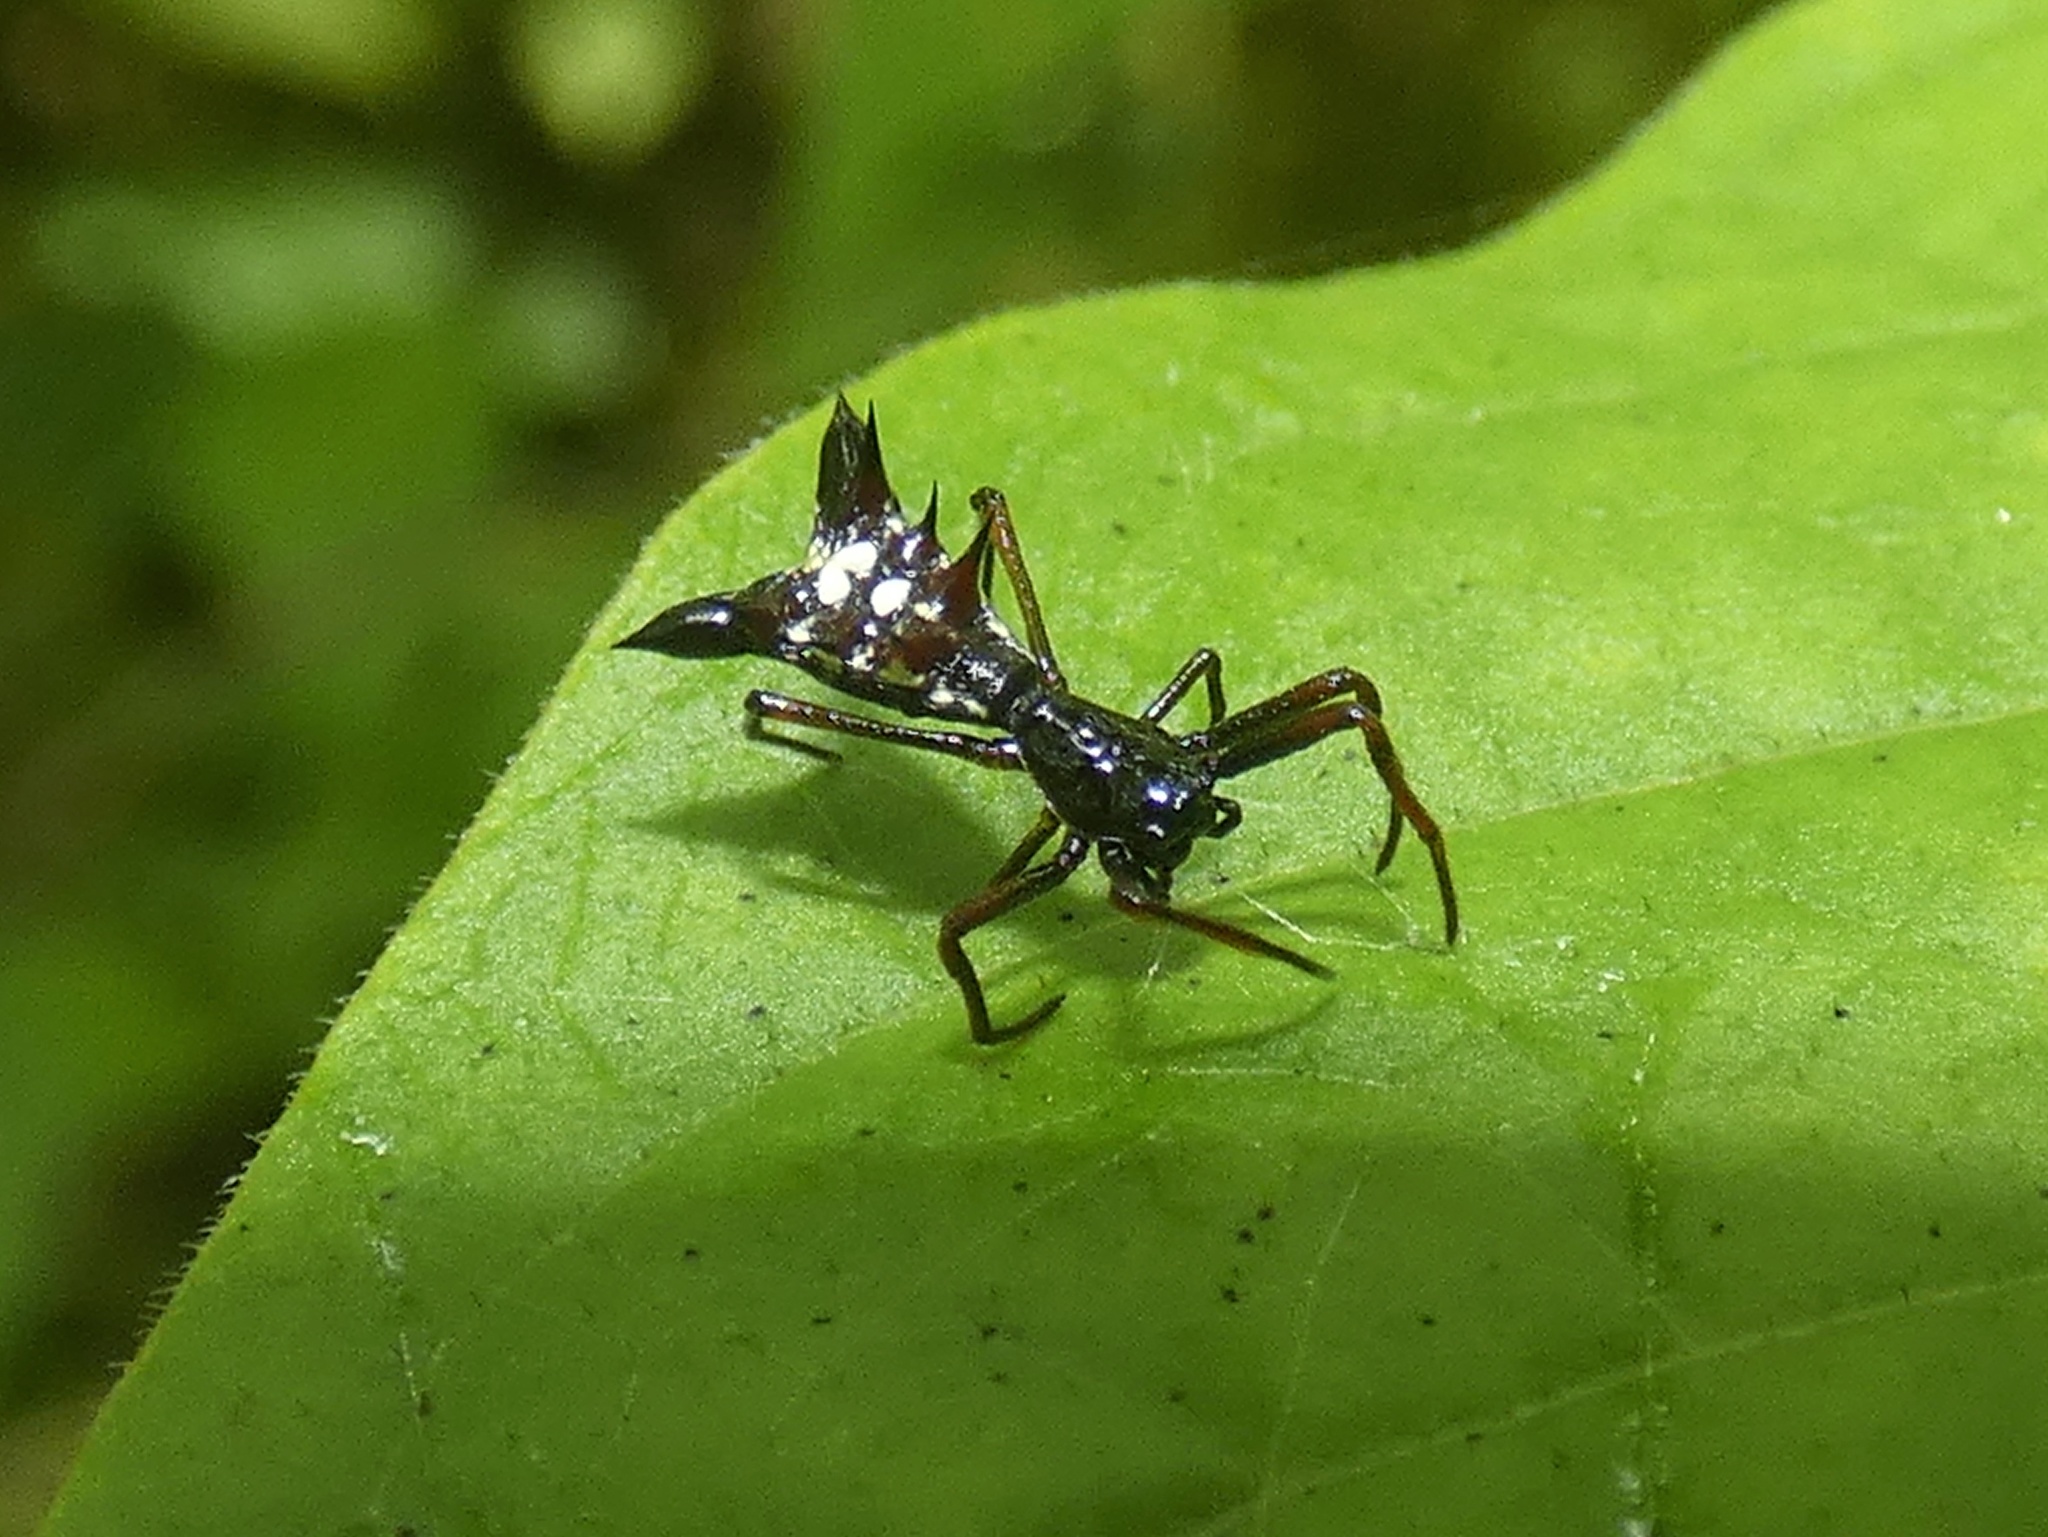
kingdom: Animalia
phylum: Arthropoda
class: Arachnida
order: Araneae
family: Araneidae
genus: Micrathena
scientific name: Micrathena sexspinosa
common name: Orb weavers
